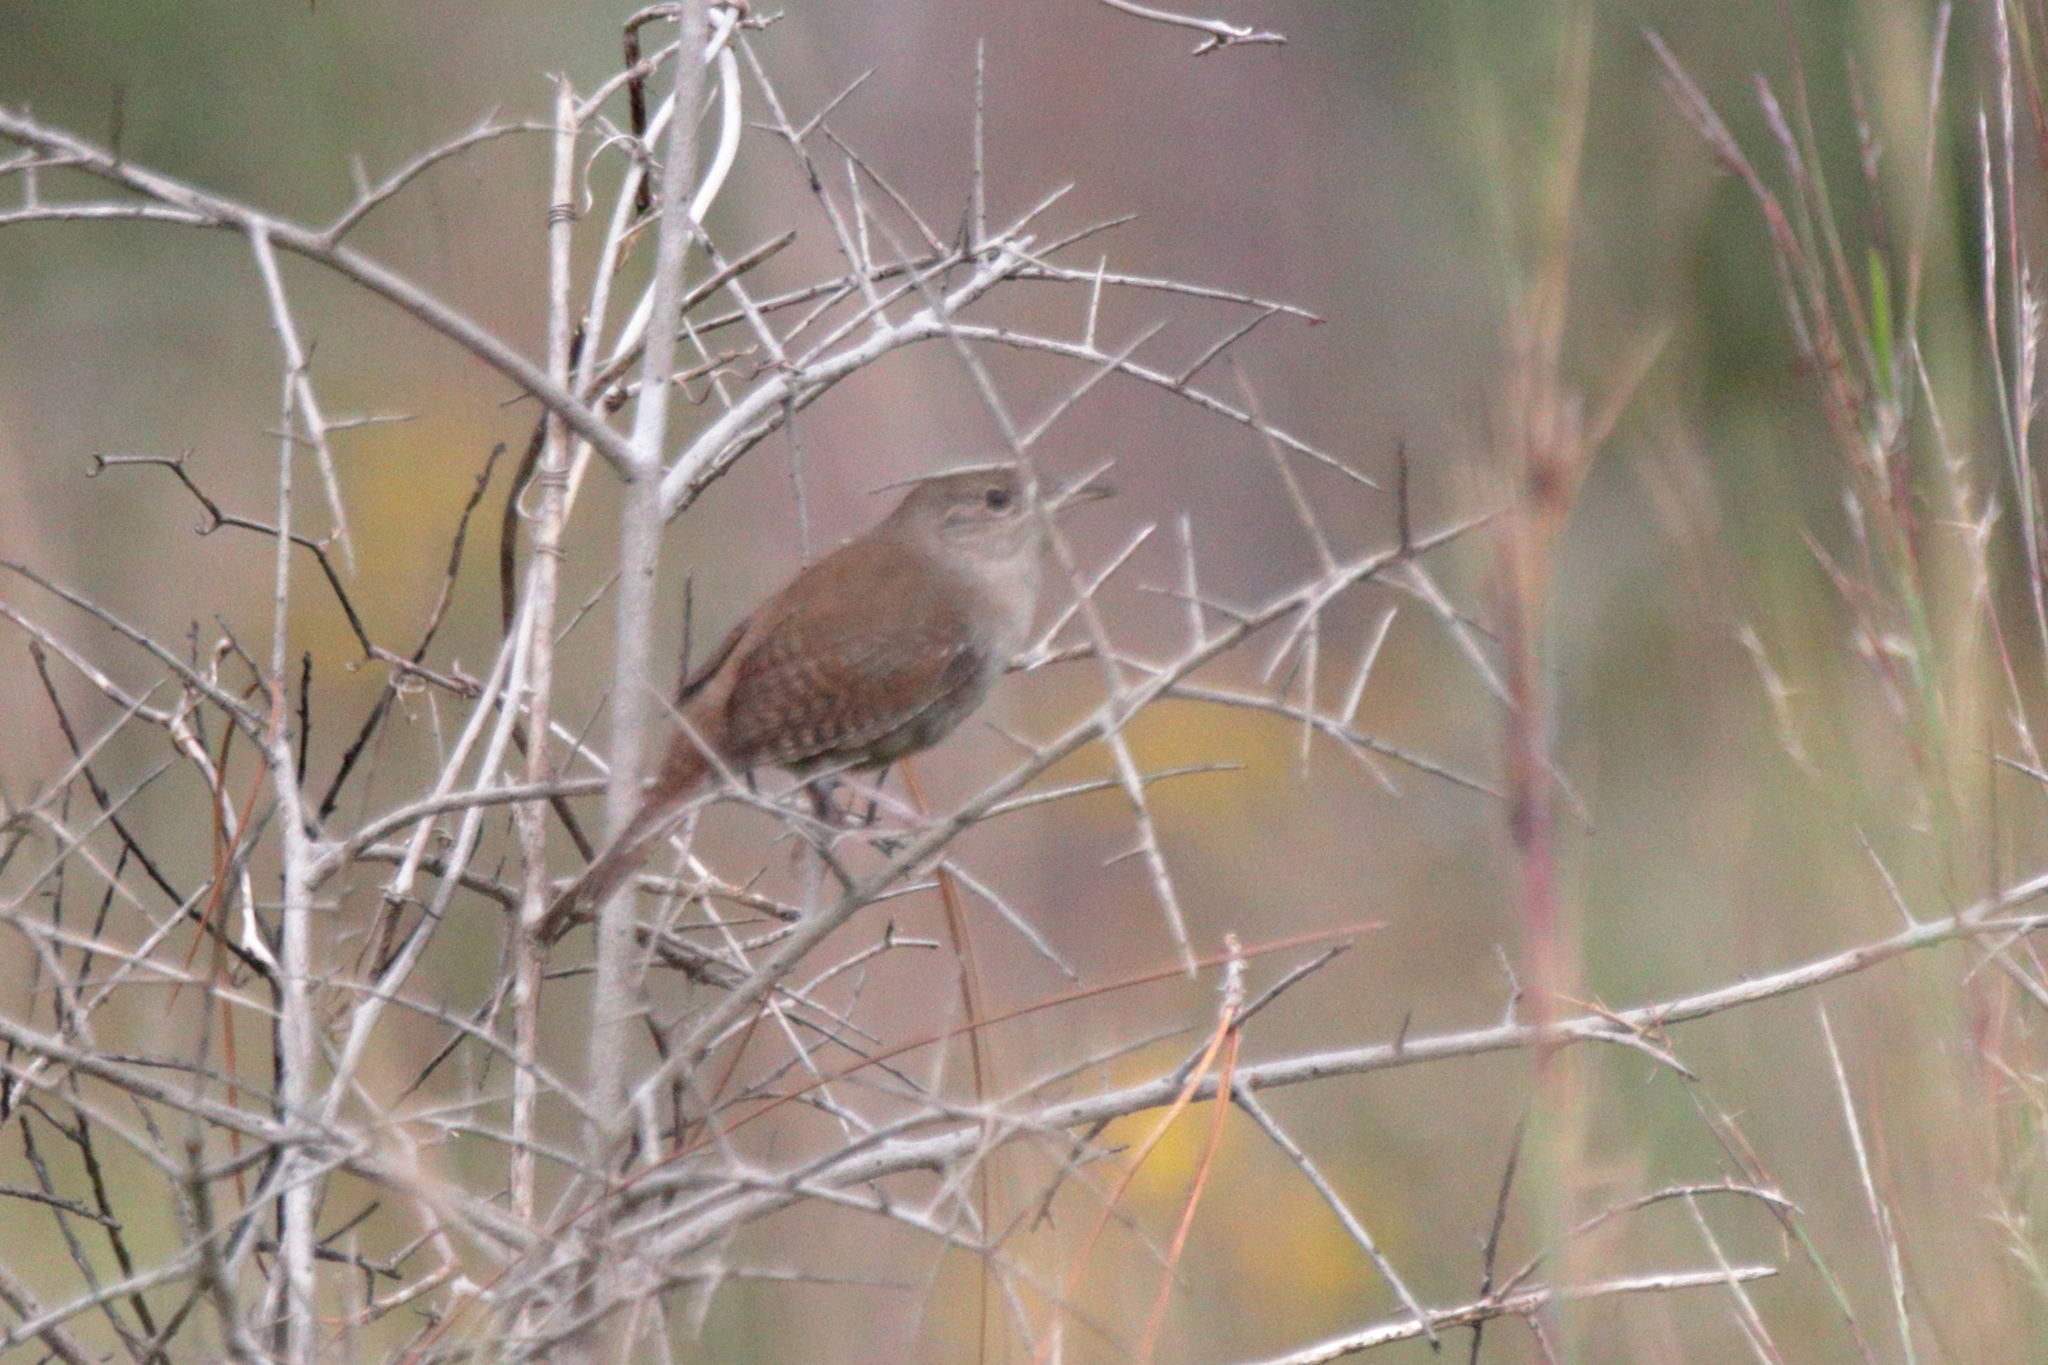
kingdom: Animalia
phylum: Chordata
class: Aves
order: Passeriformes
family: Troglodytidae
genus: Troglodytes
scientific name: Troglodytes aedon
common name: House wren
